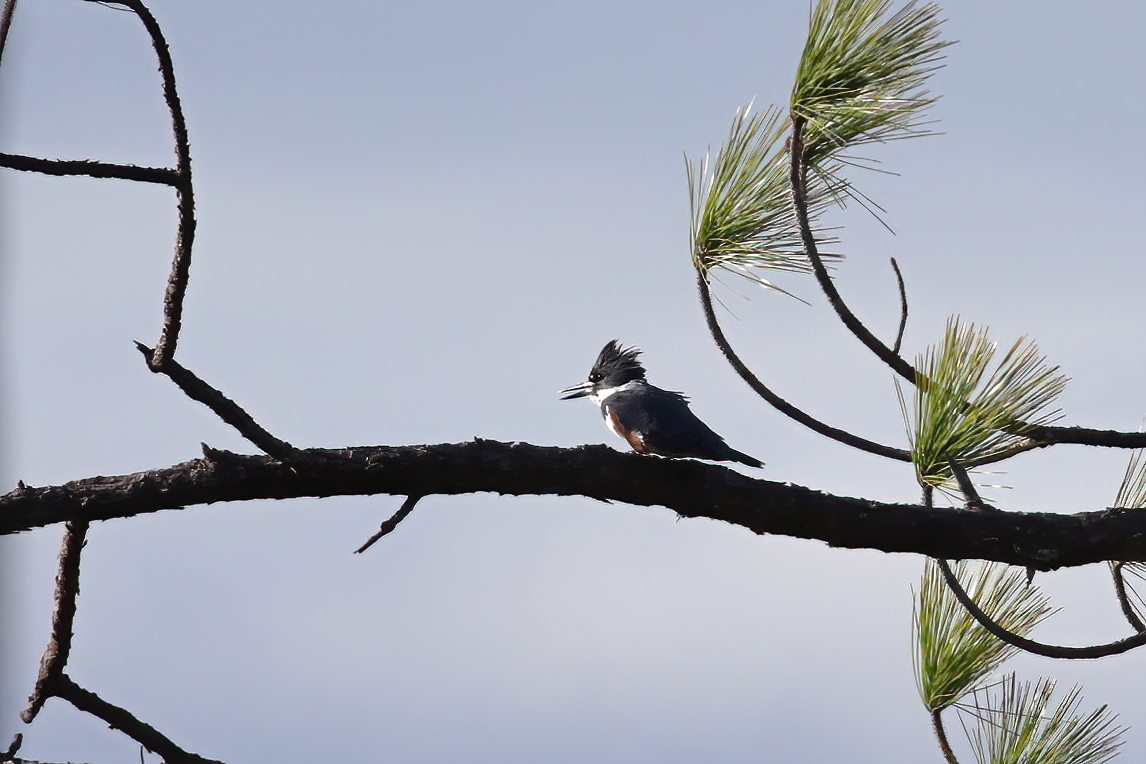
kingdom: Animalia
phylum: Chordata
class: Aves
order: Coraciiformes
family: Alcedinidae
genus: Megaceryle
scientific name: Megaceryle alcyon
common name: Belted kingfisher
